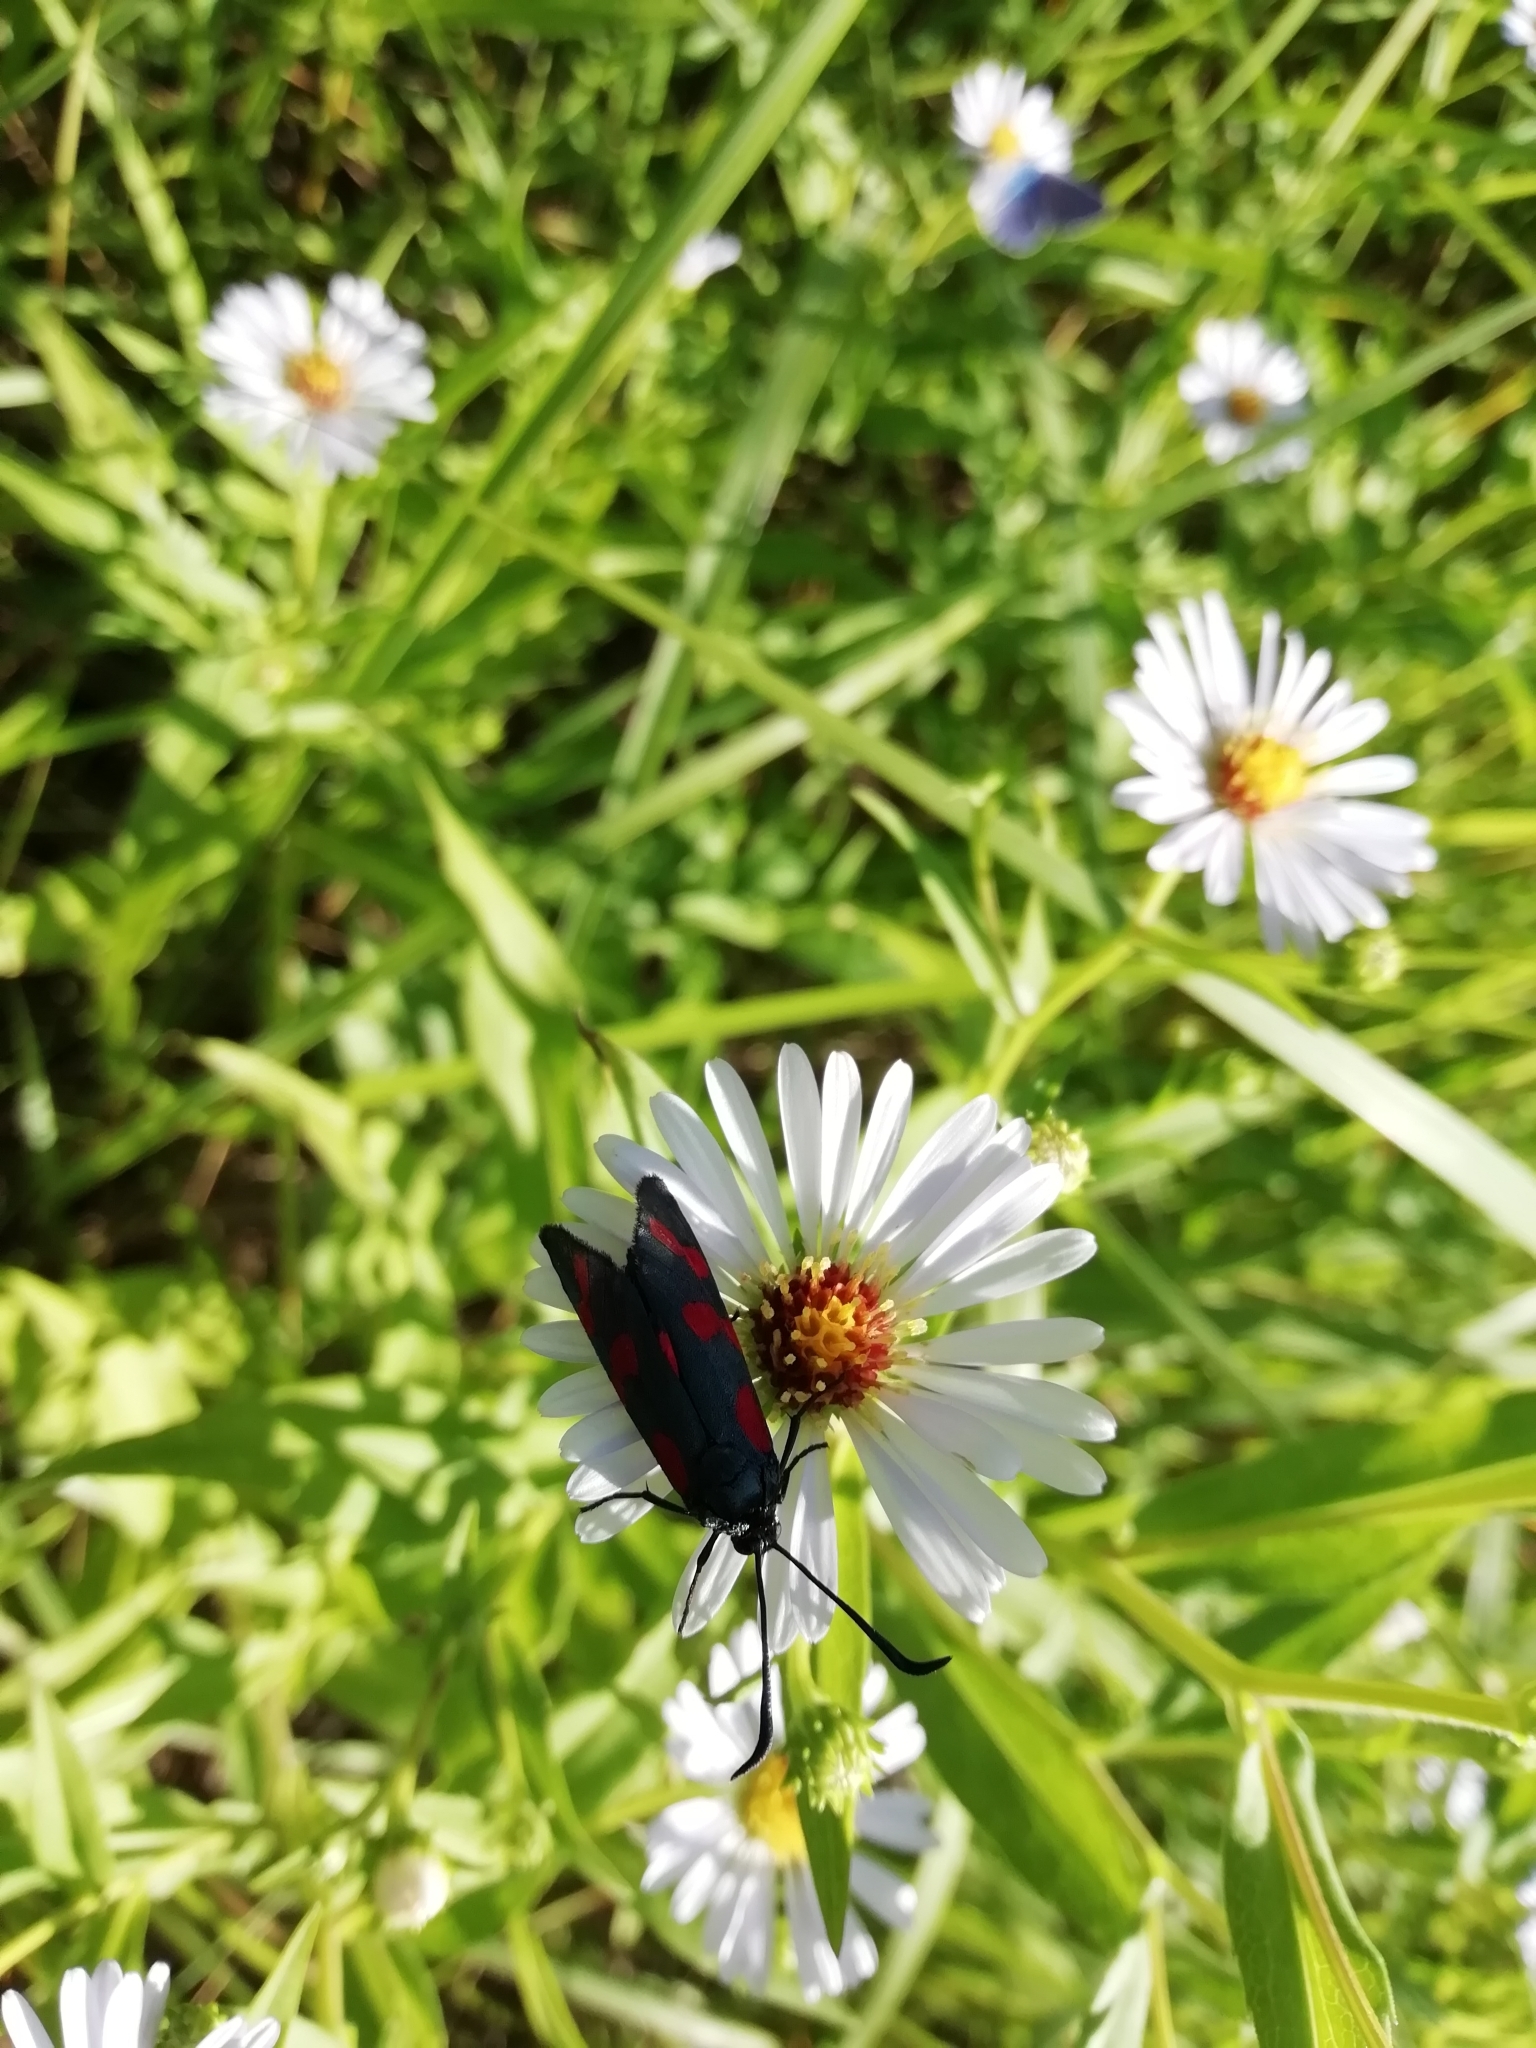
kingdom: Animalia
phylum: Arthropoda
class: Insecta
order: Lepidoptera
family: Zygaenidae
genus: Zygaena
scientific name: Zygaena filipendulae
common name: Six-spot burnet
